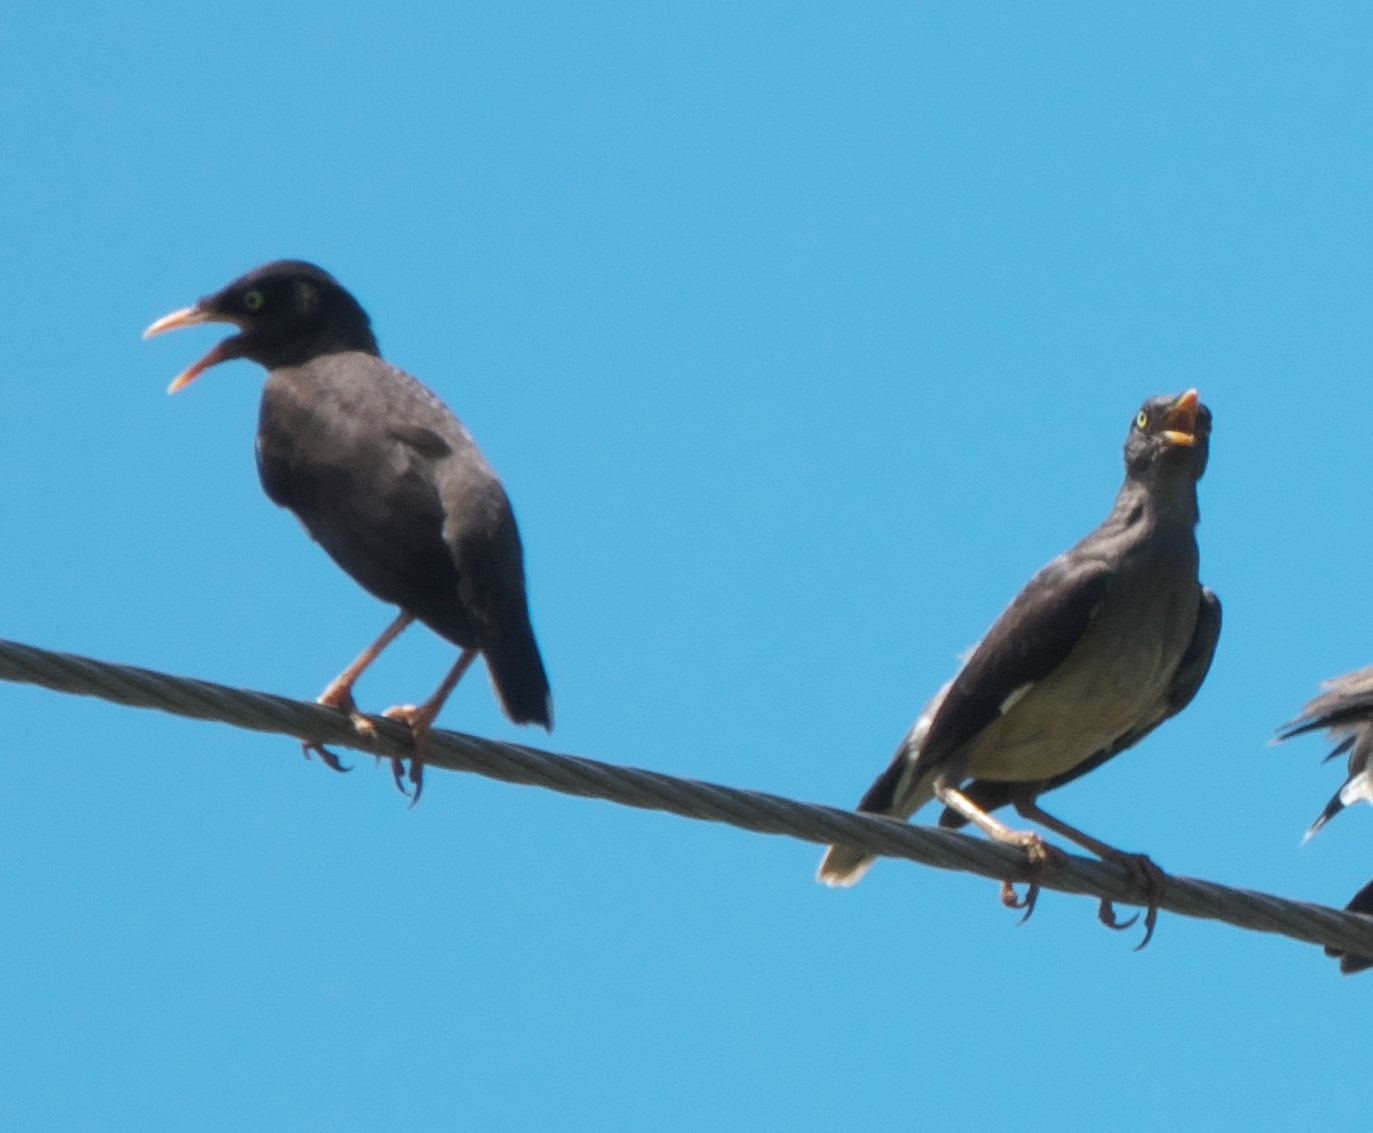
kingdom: Animalia
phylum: Chordata
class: Aves
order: Passeriformes
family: Sturnidae
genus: Acridotheres
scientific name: Acridotheres fuscus
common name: Jungle myna
